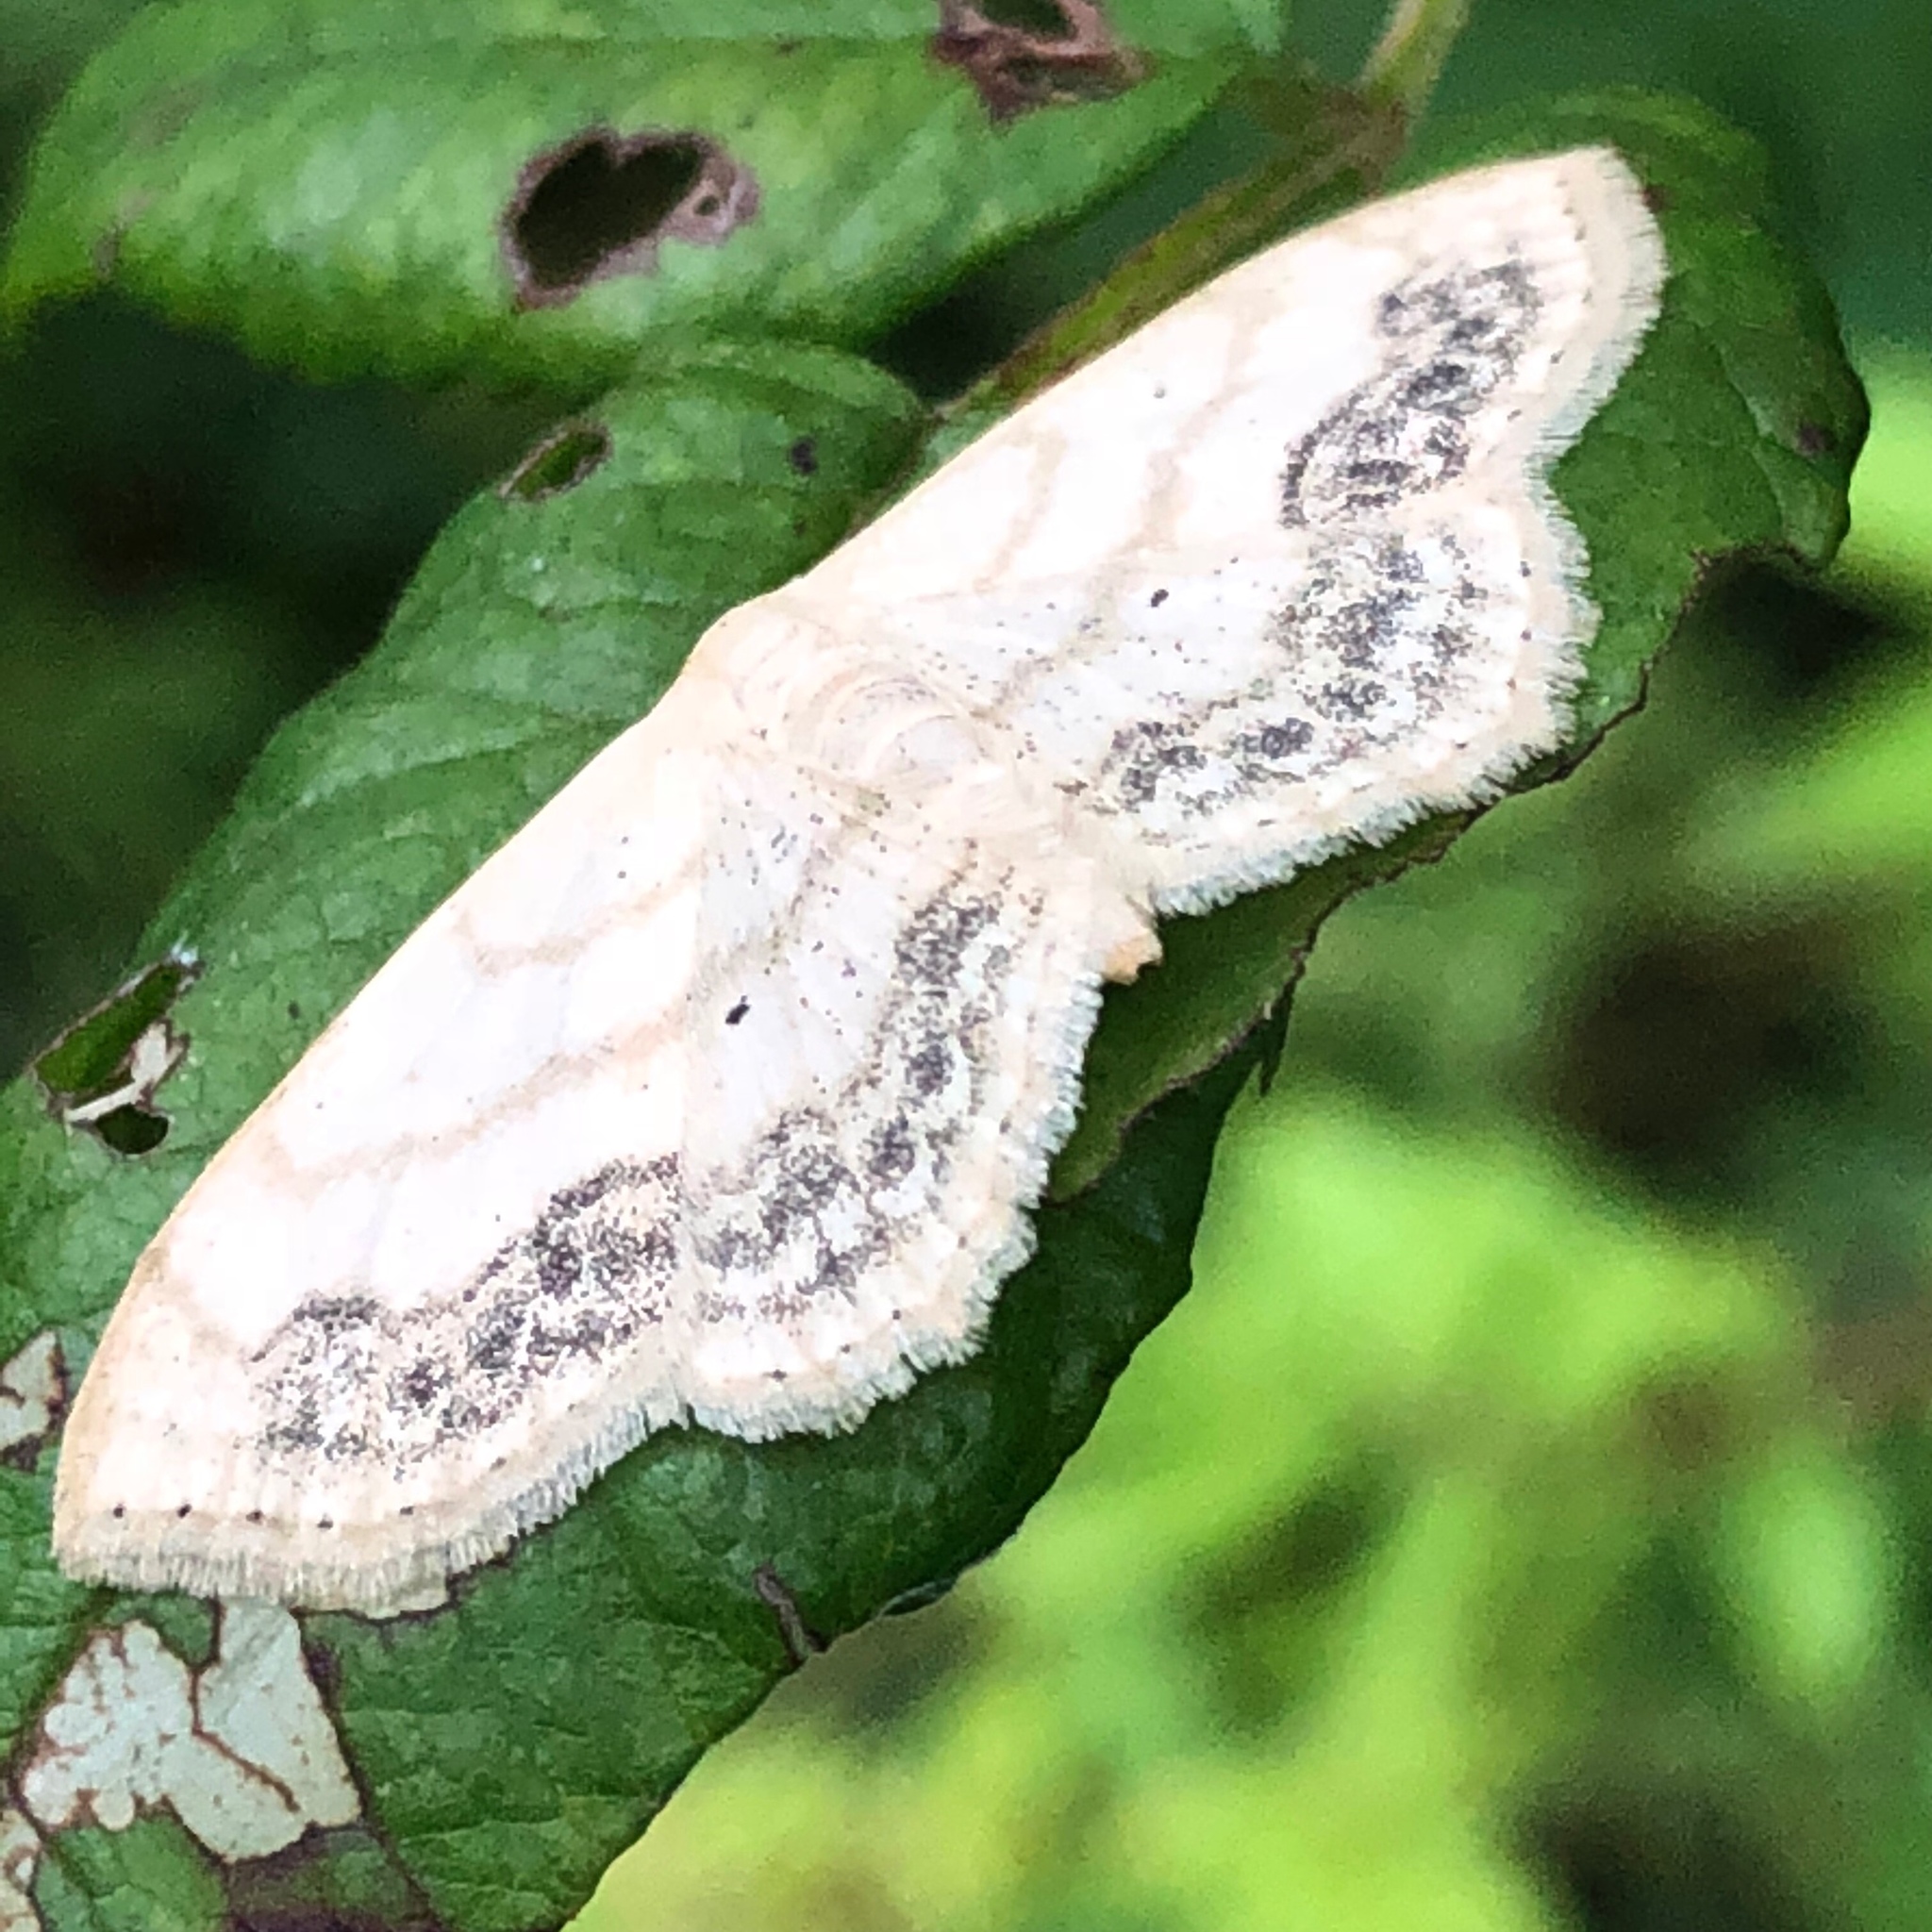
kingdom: Animalia
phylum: Arthropoda
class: Insecta
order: Lepidoptera
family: Geometridae
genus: Scopula
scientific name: Scopula limboundata
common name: Large lace border
